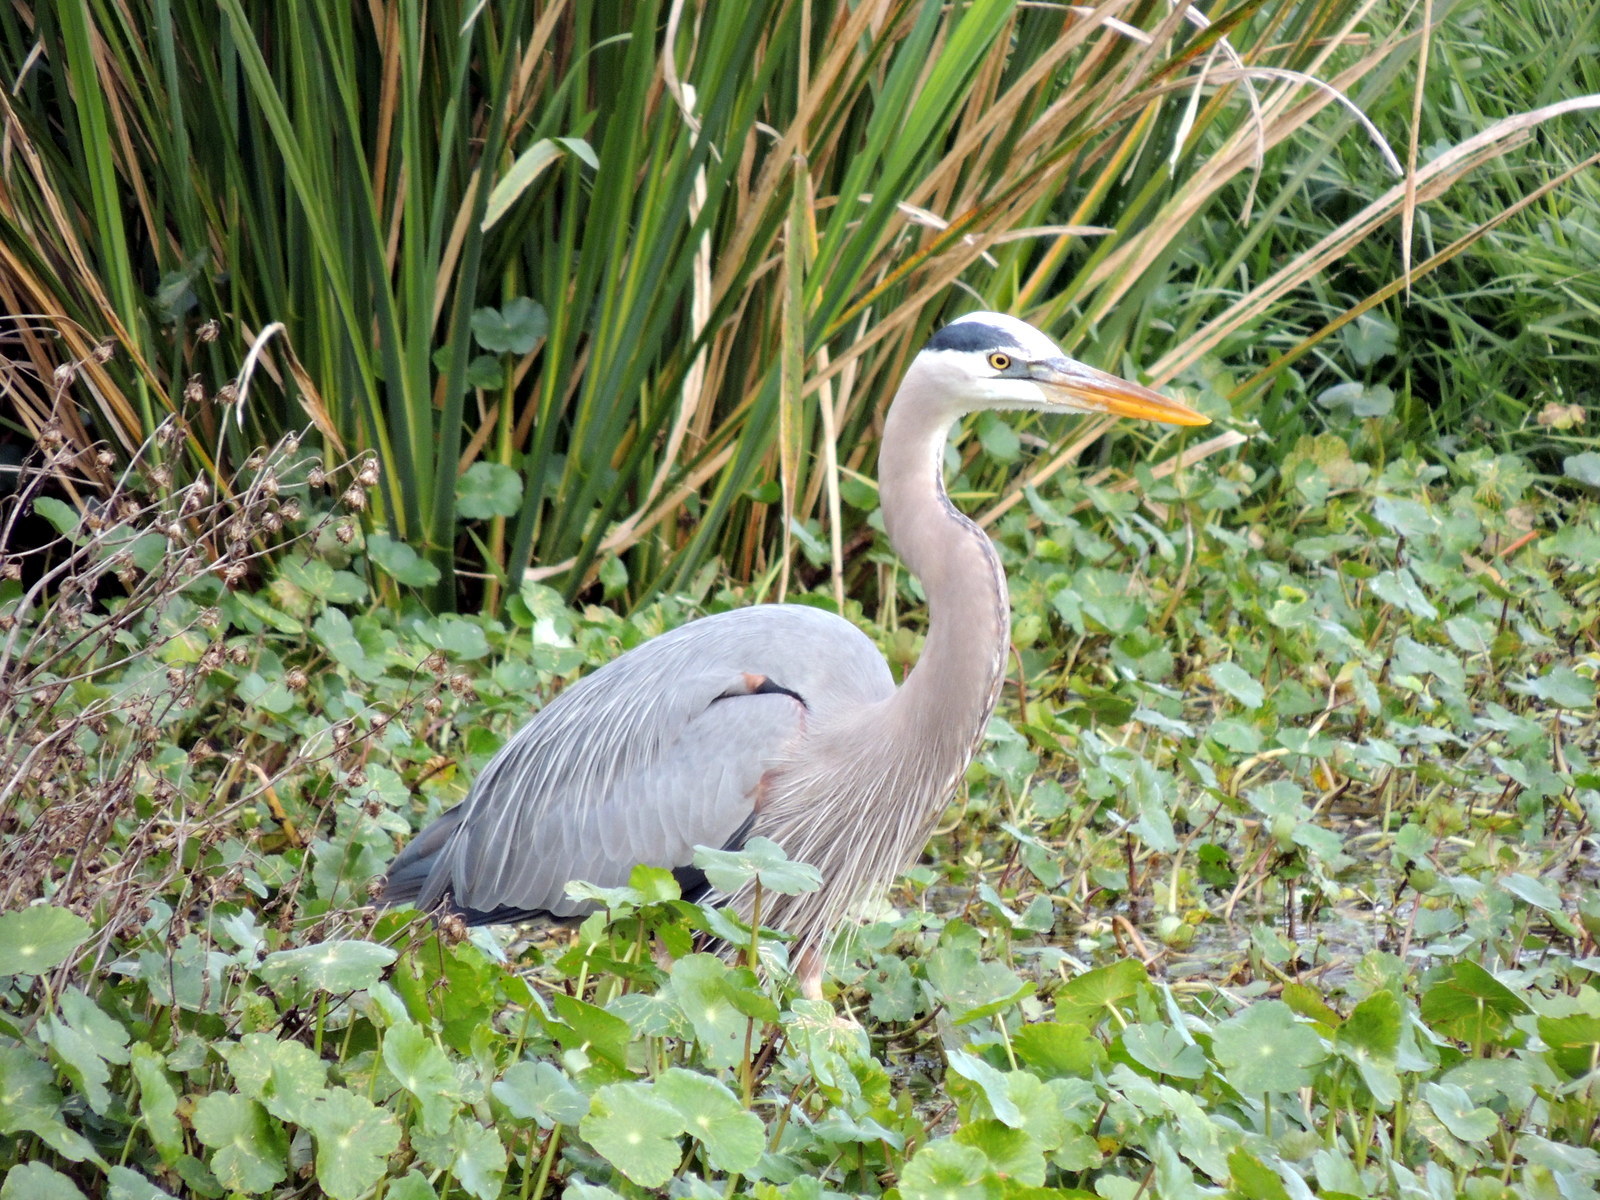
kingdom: Animalia
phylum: Chordata
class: Aves
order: Pelecaniformes
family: Ardeidae
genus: Ardea
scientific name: Ardea herodias
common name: Great blue heron
